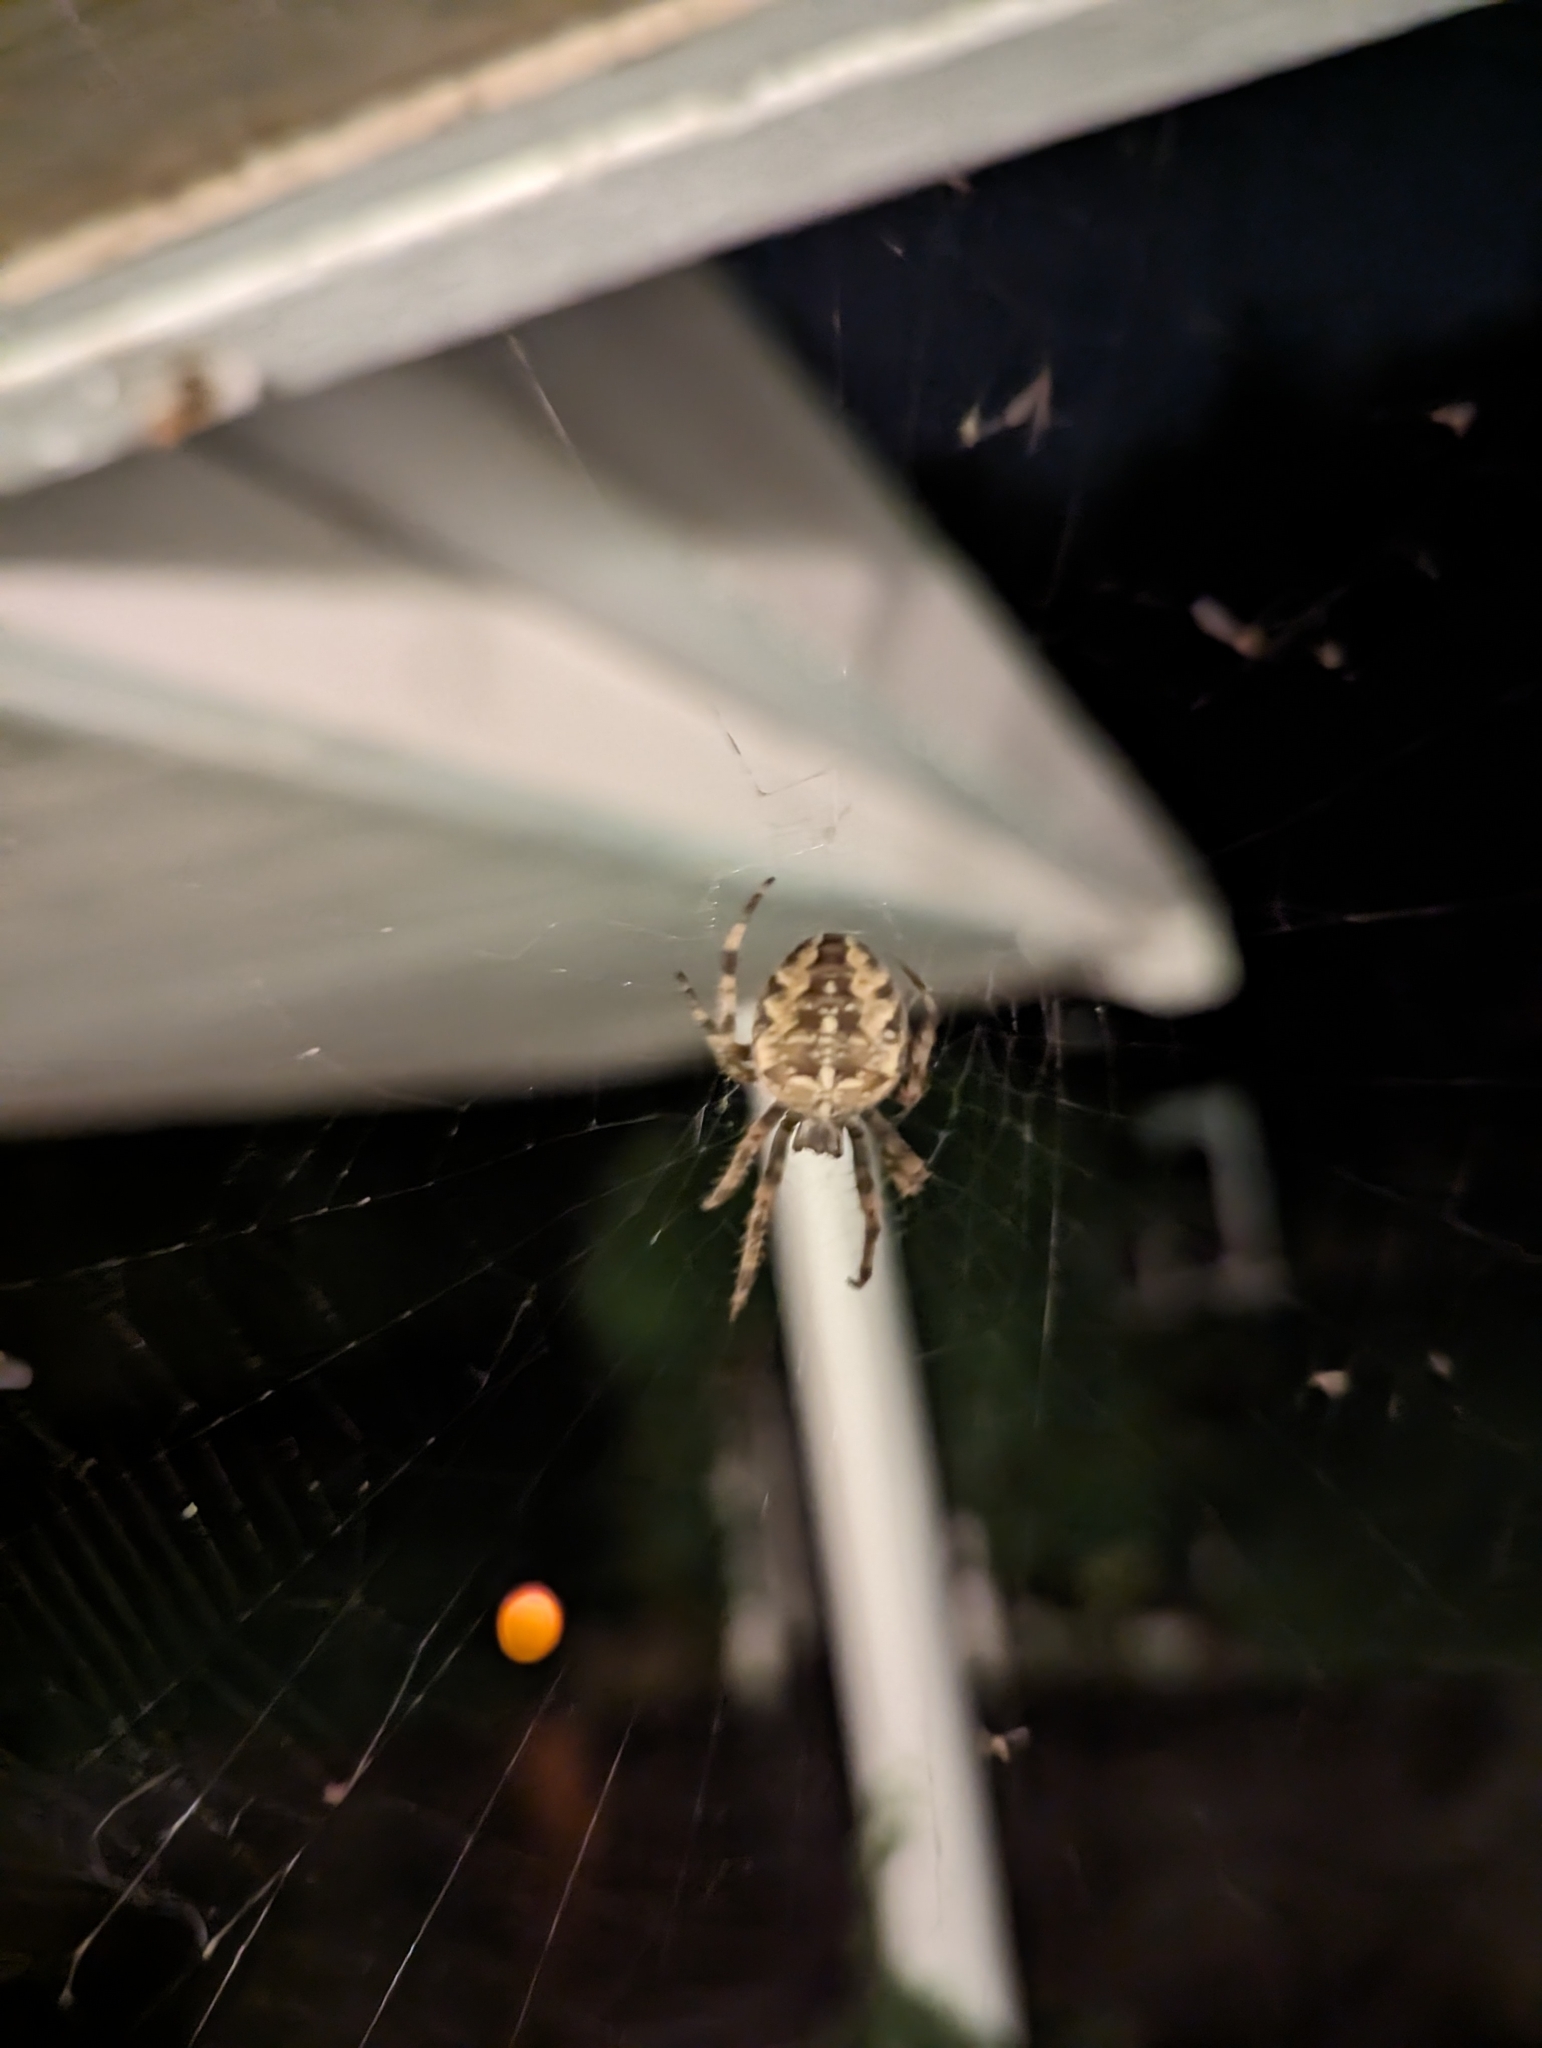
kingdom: Animalia
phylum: Arthropoda
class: Arachnida
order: Araneae
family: Araneidae
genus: Araneus
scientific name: Araneus diadematus
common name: Cross orbweaver
